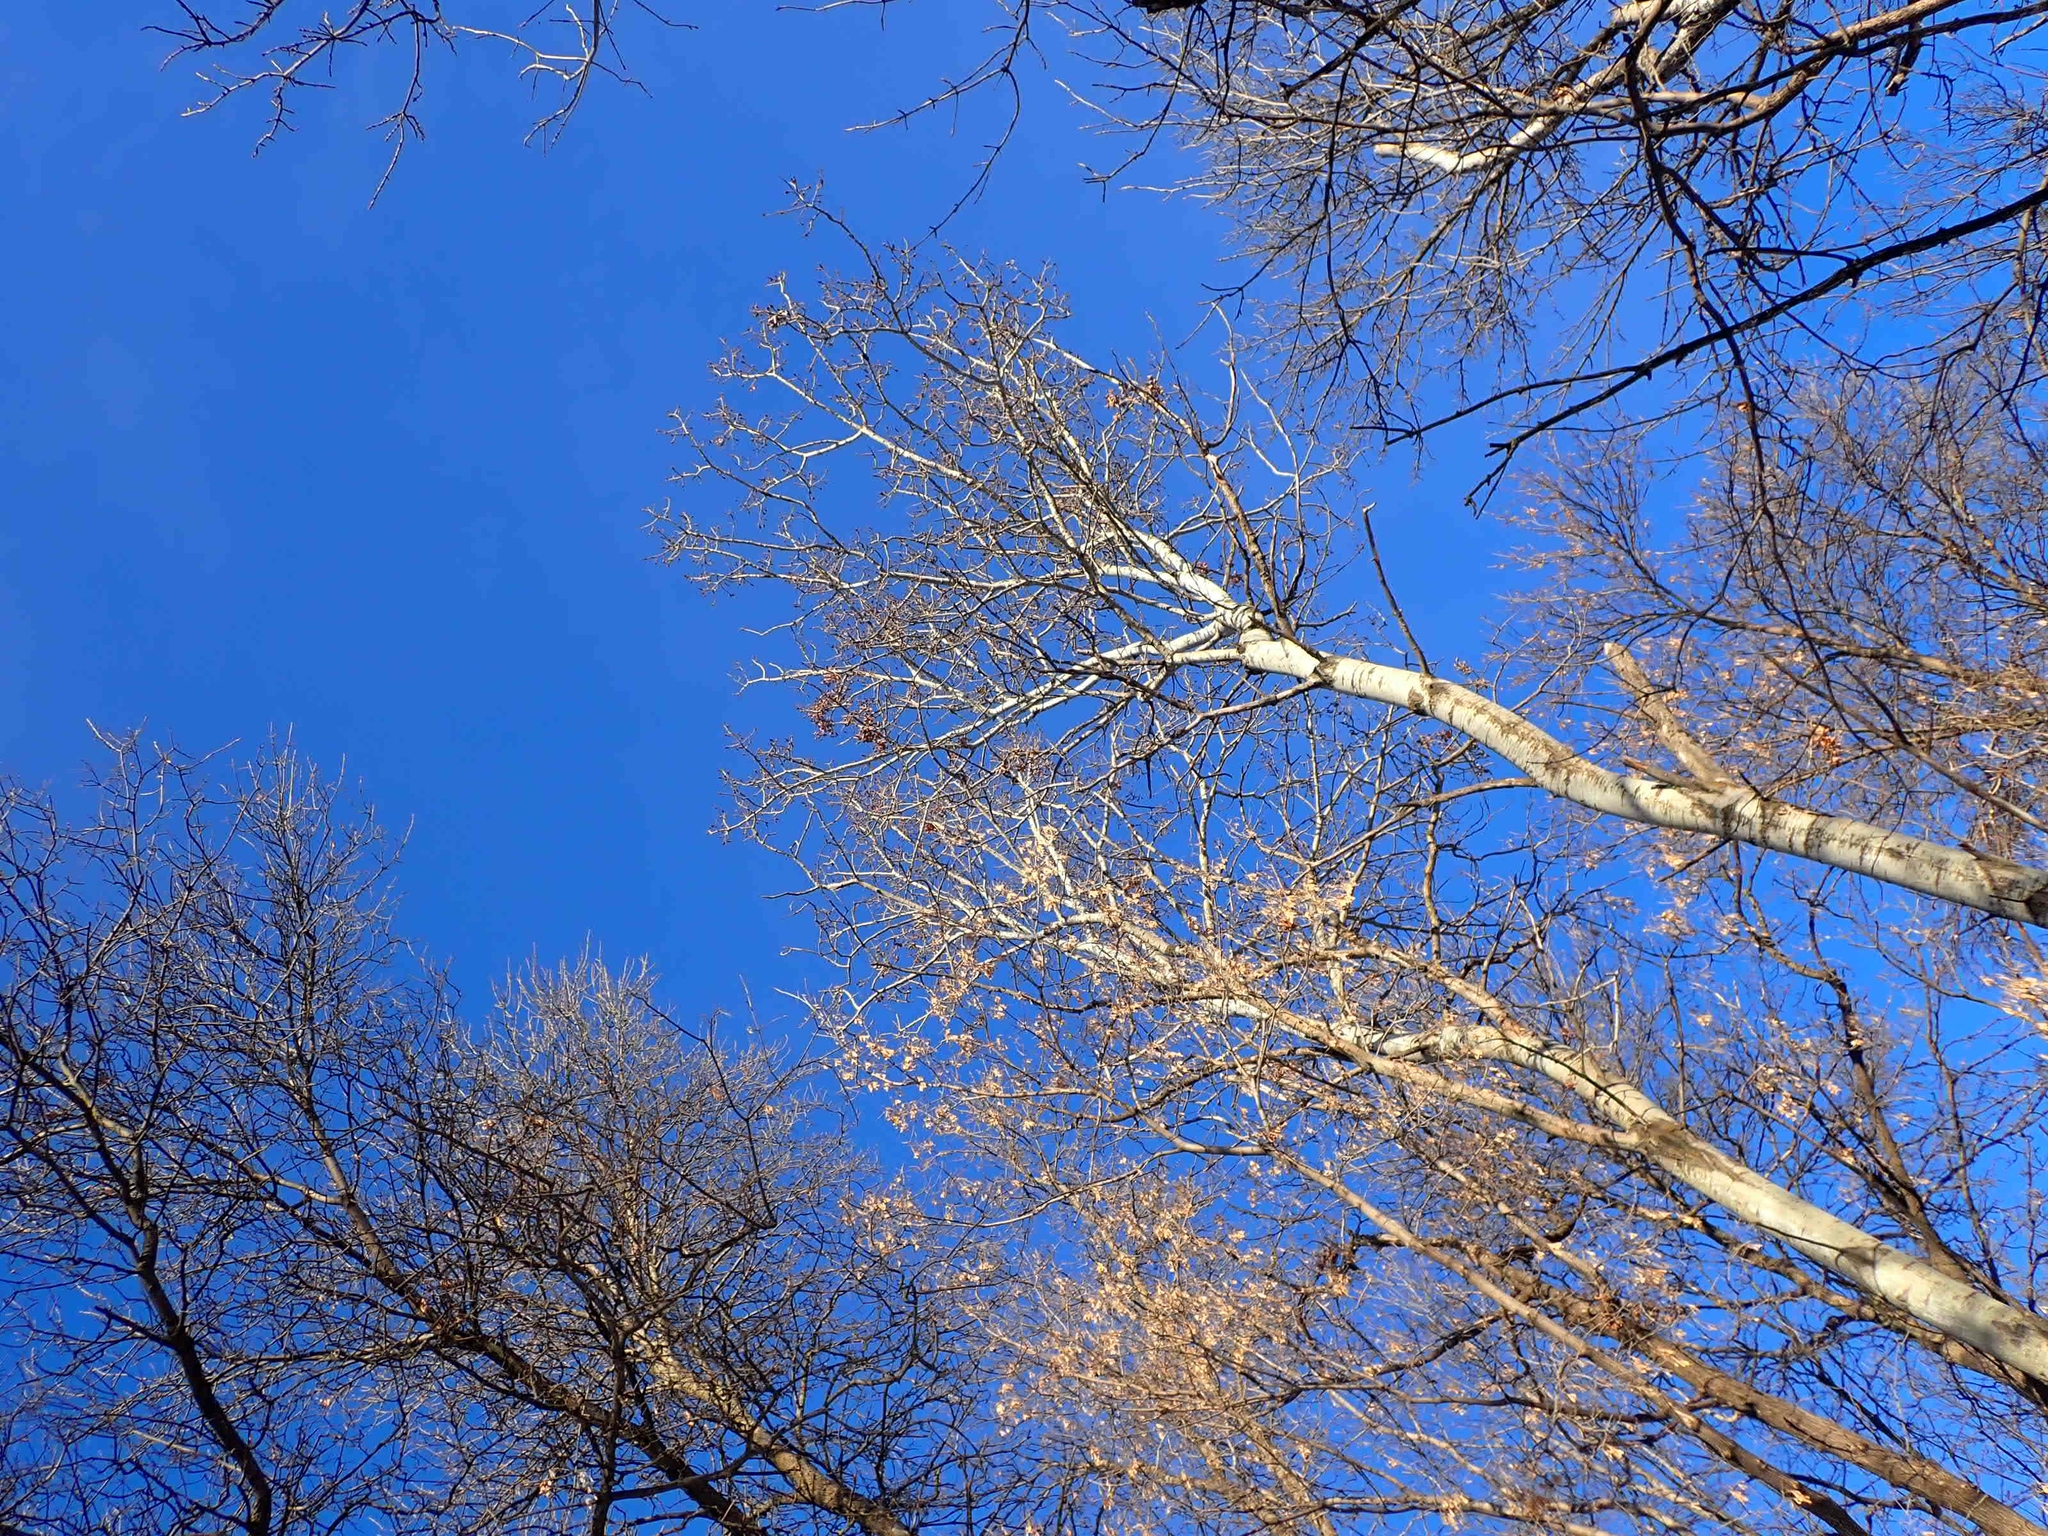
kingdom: Plantae
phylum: Tracheophyta
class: Magnoliopsida
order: Malpighiales
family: Salicaceae
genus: Populus
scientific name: Populus tremuloides
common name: Quaking aspen
